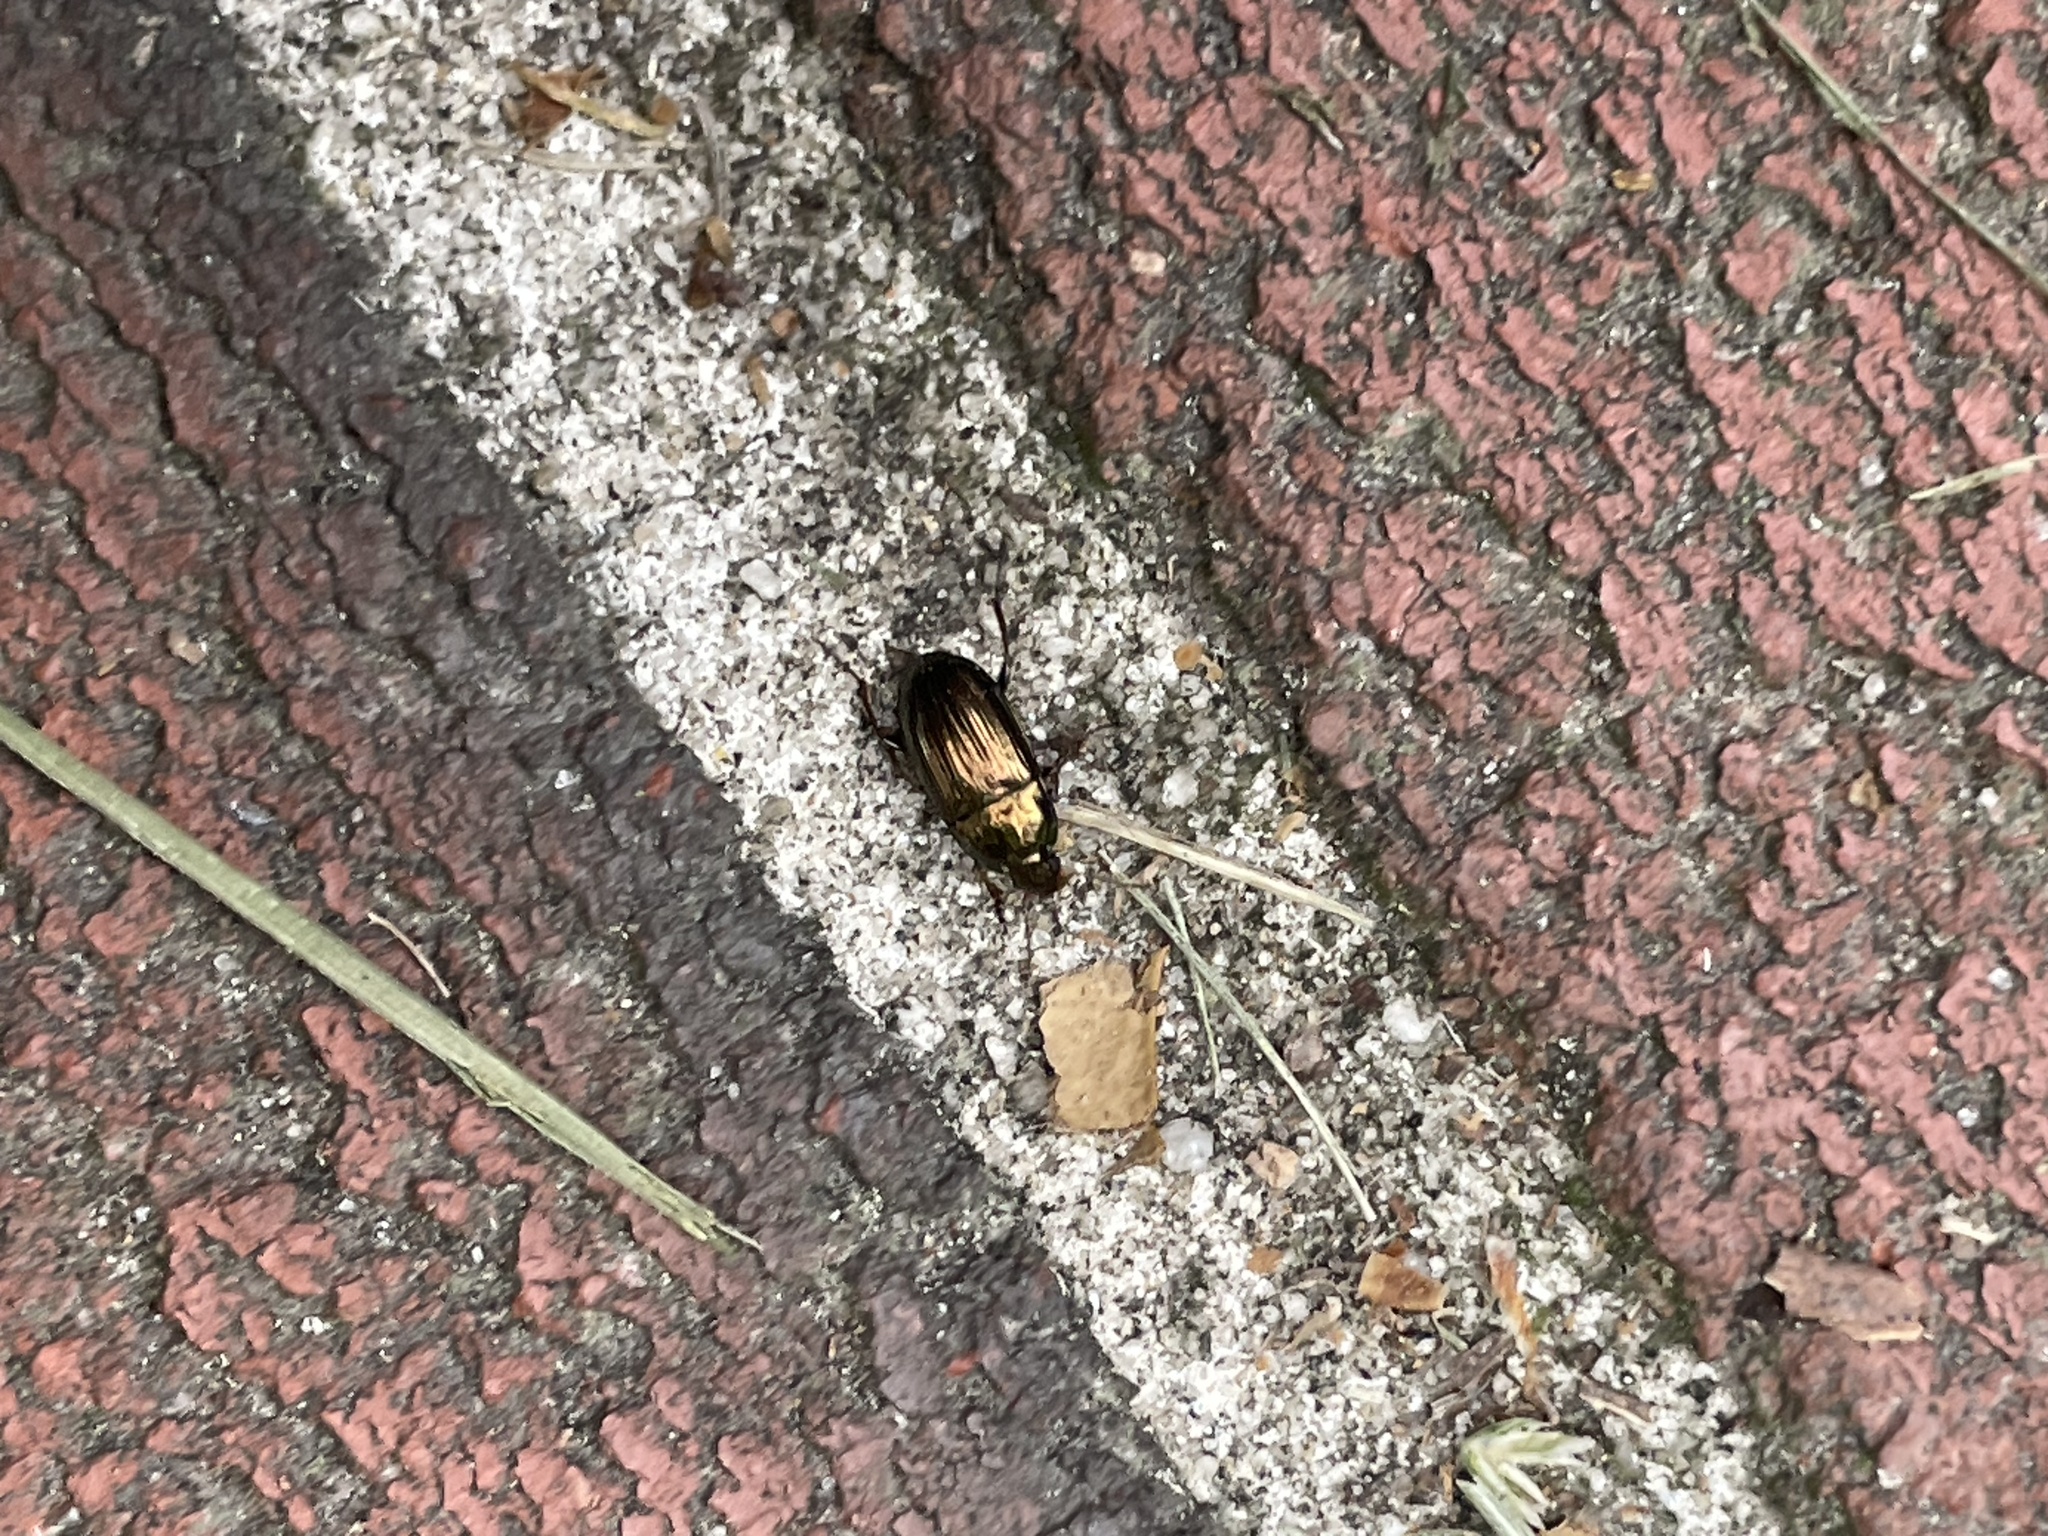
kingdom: Animalia
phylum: Arthropoda
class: Insecta
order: Coleoptera
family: Carabidae
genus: Amara
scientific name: Amara aenea
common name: Common sun beetle
